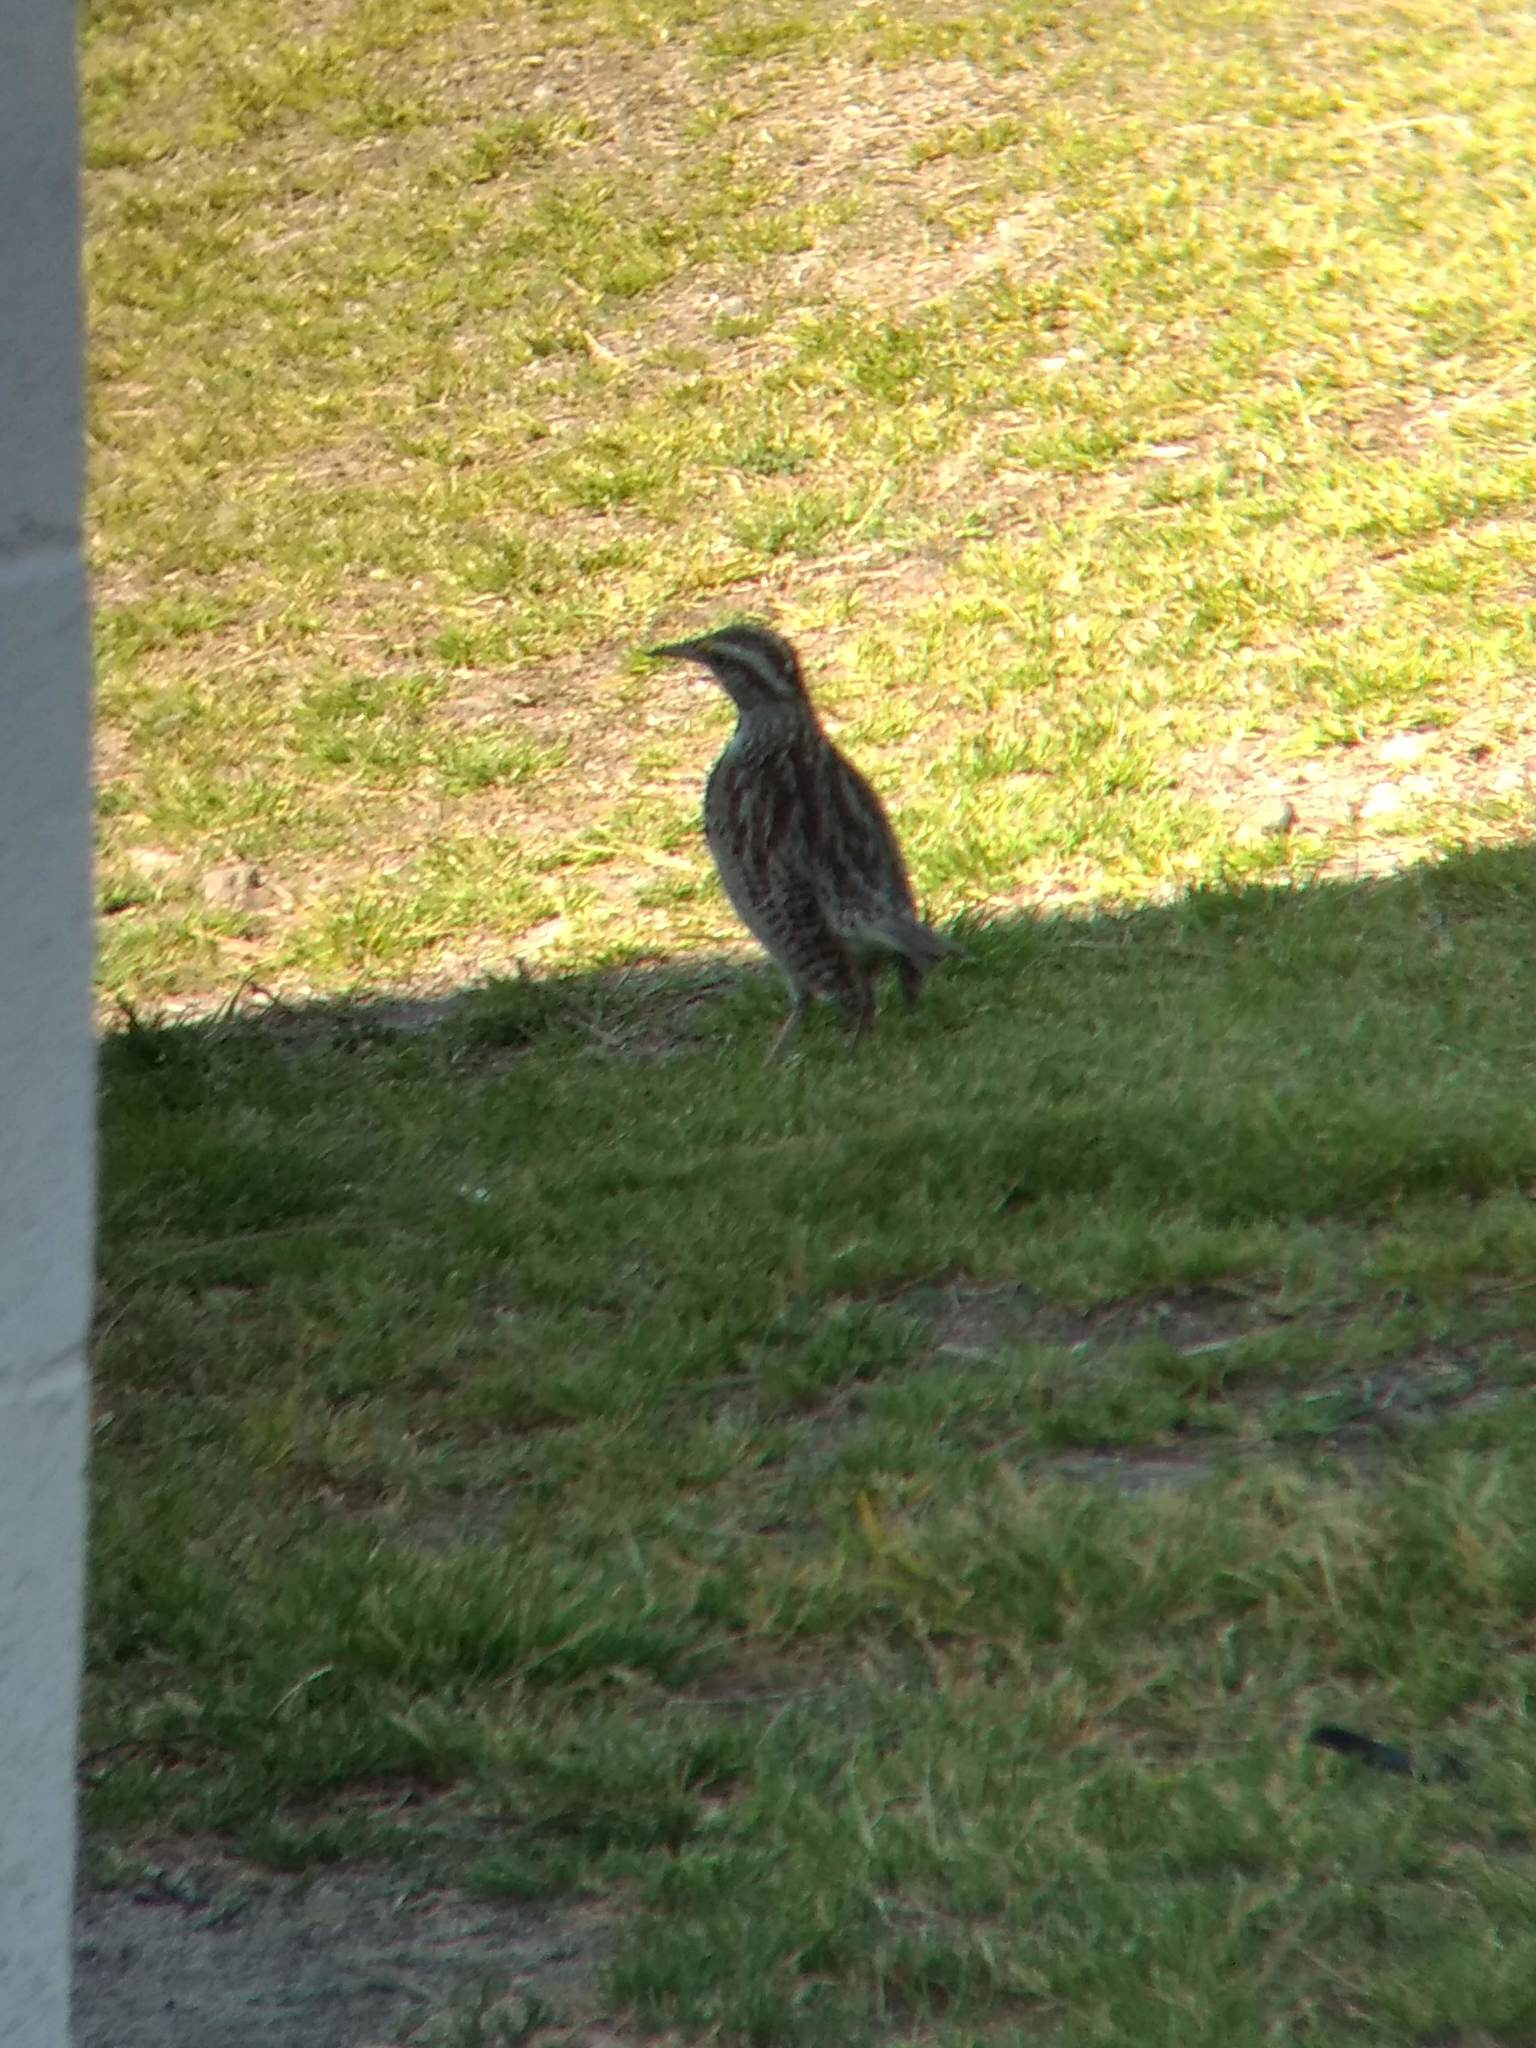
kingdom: Animalia
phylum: Chordata
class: Aves
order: Passeriformes
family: Icteridae
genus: Sturnella
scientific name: Sturnella neglecta
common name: Western meadowlark
